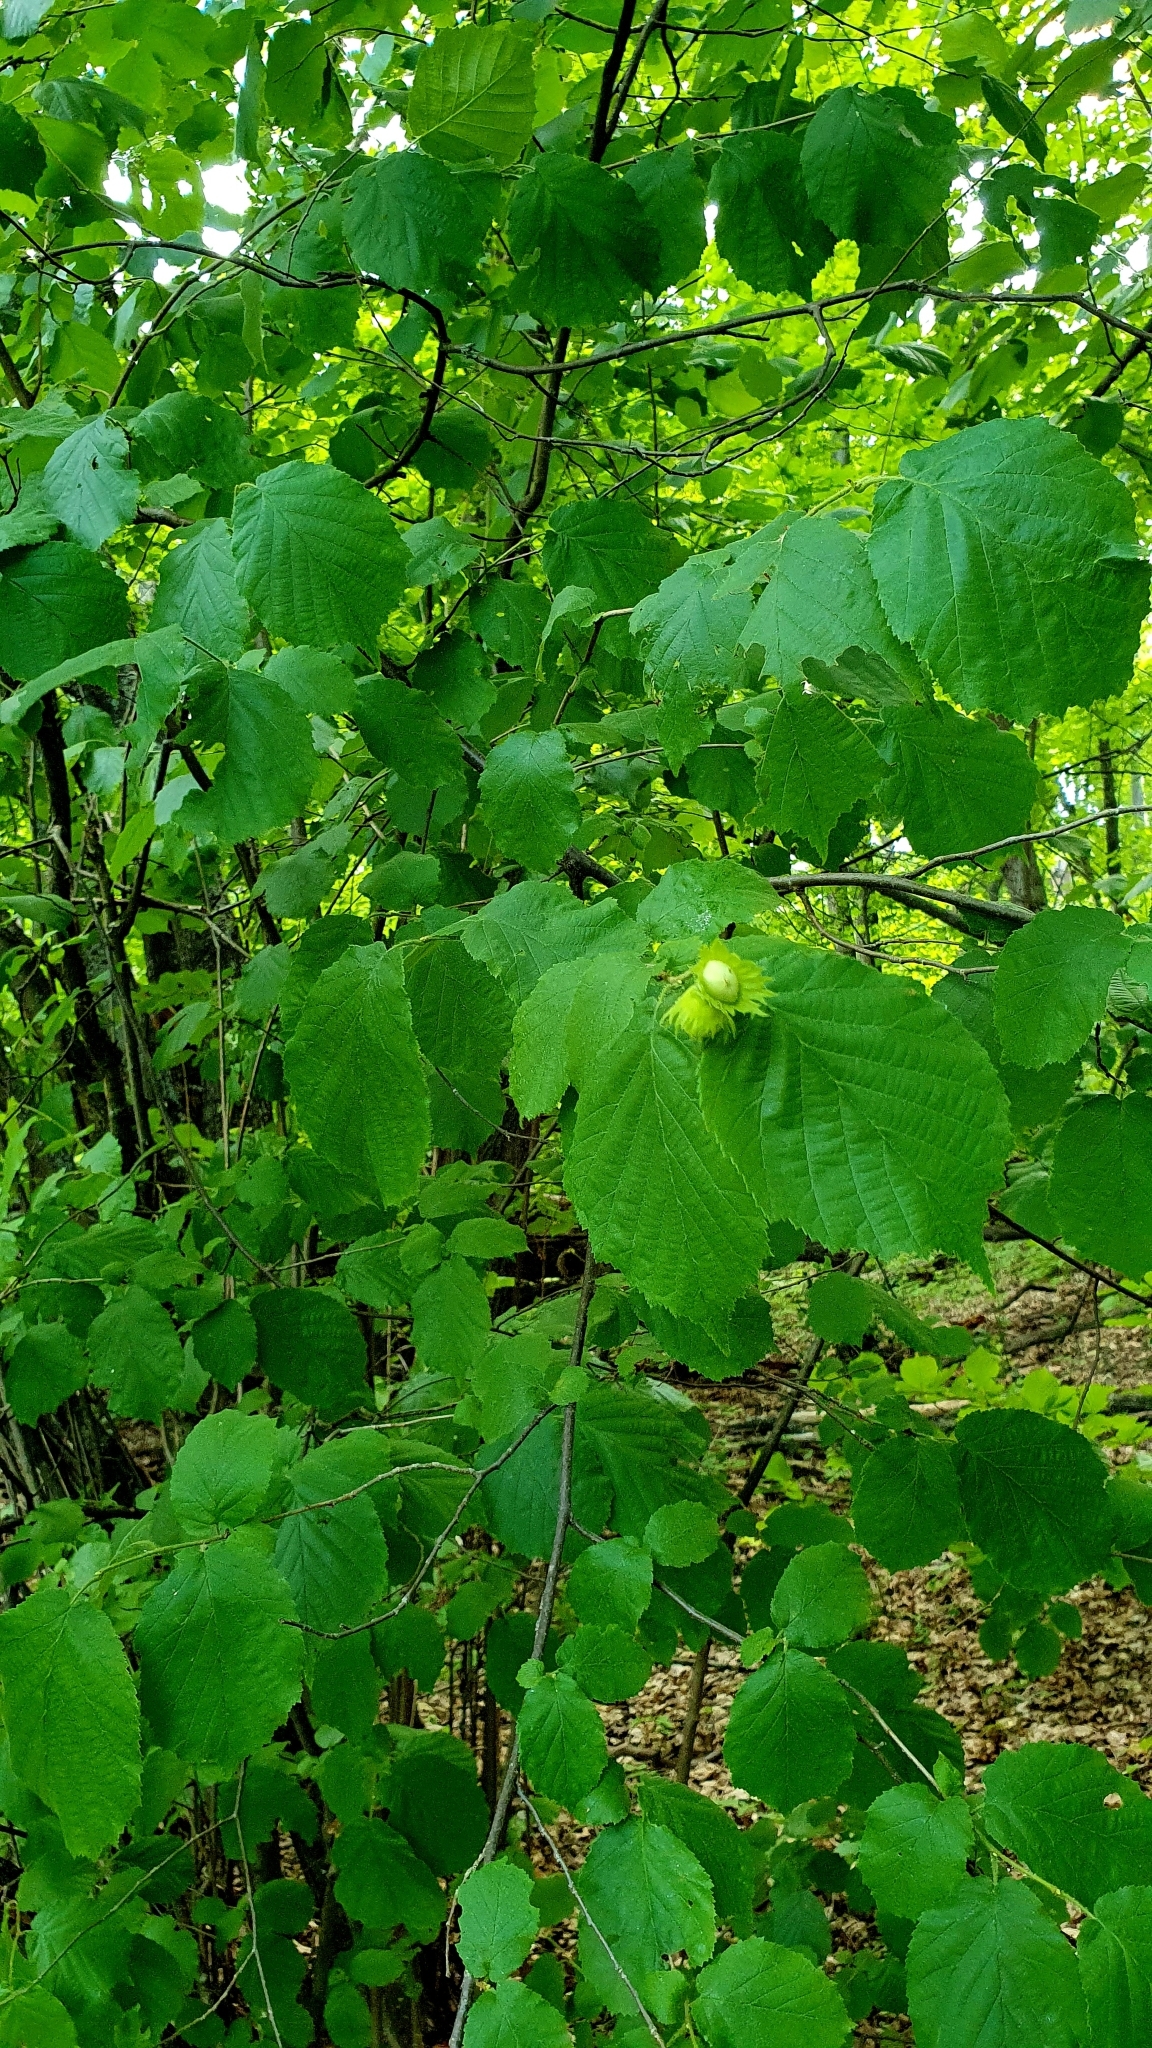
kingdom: Plantae
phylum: Tracheophyta
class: Magnoliopsida
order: Fagales
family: Betulaceae
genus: Corylus
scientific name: Corylus avellana
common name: European hazel
